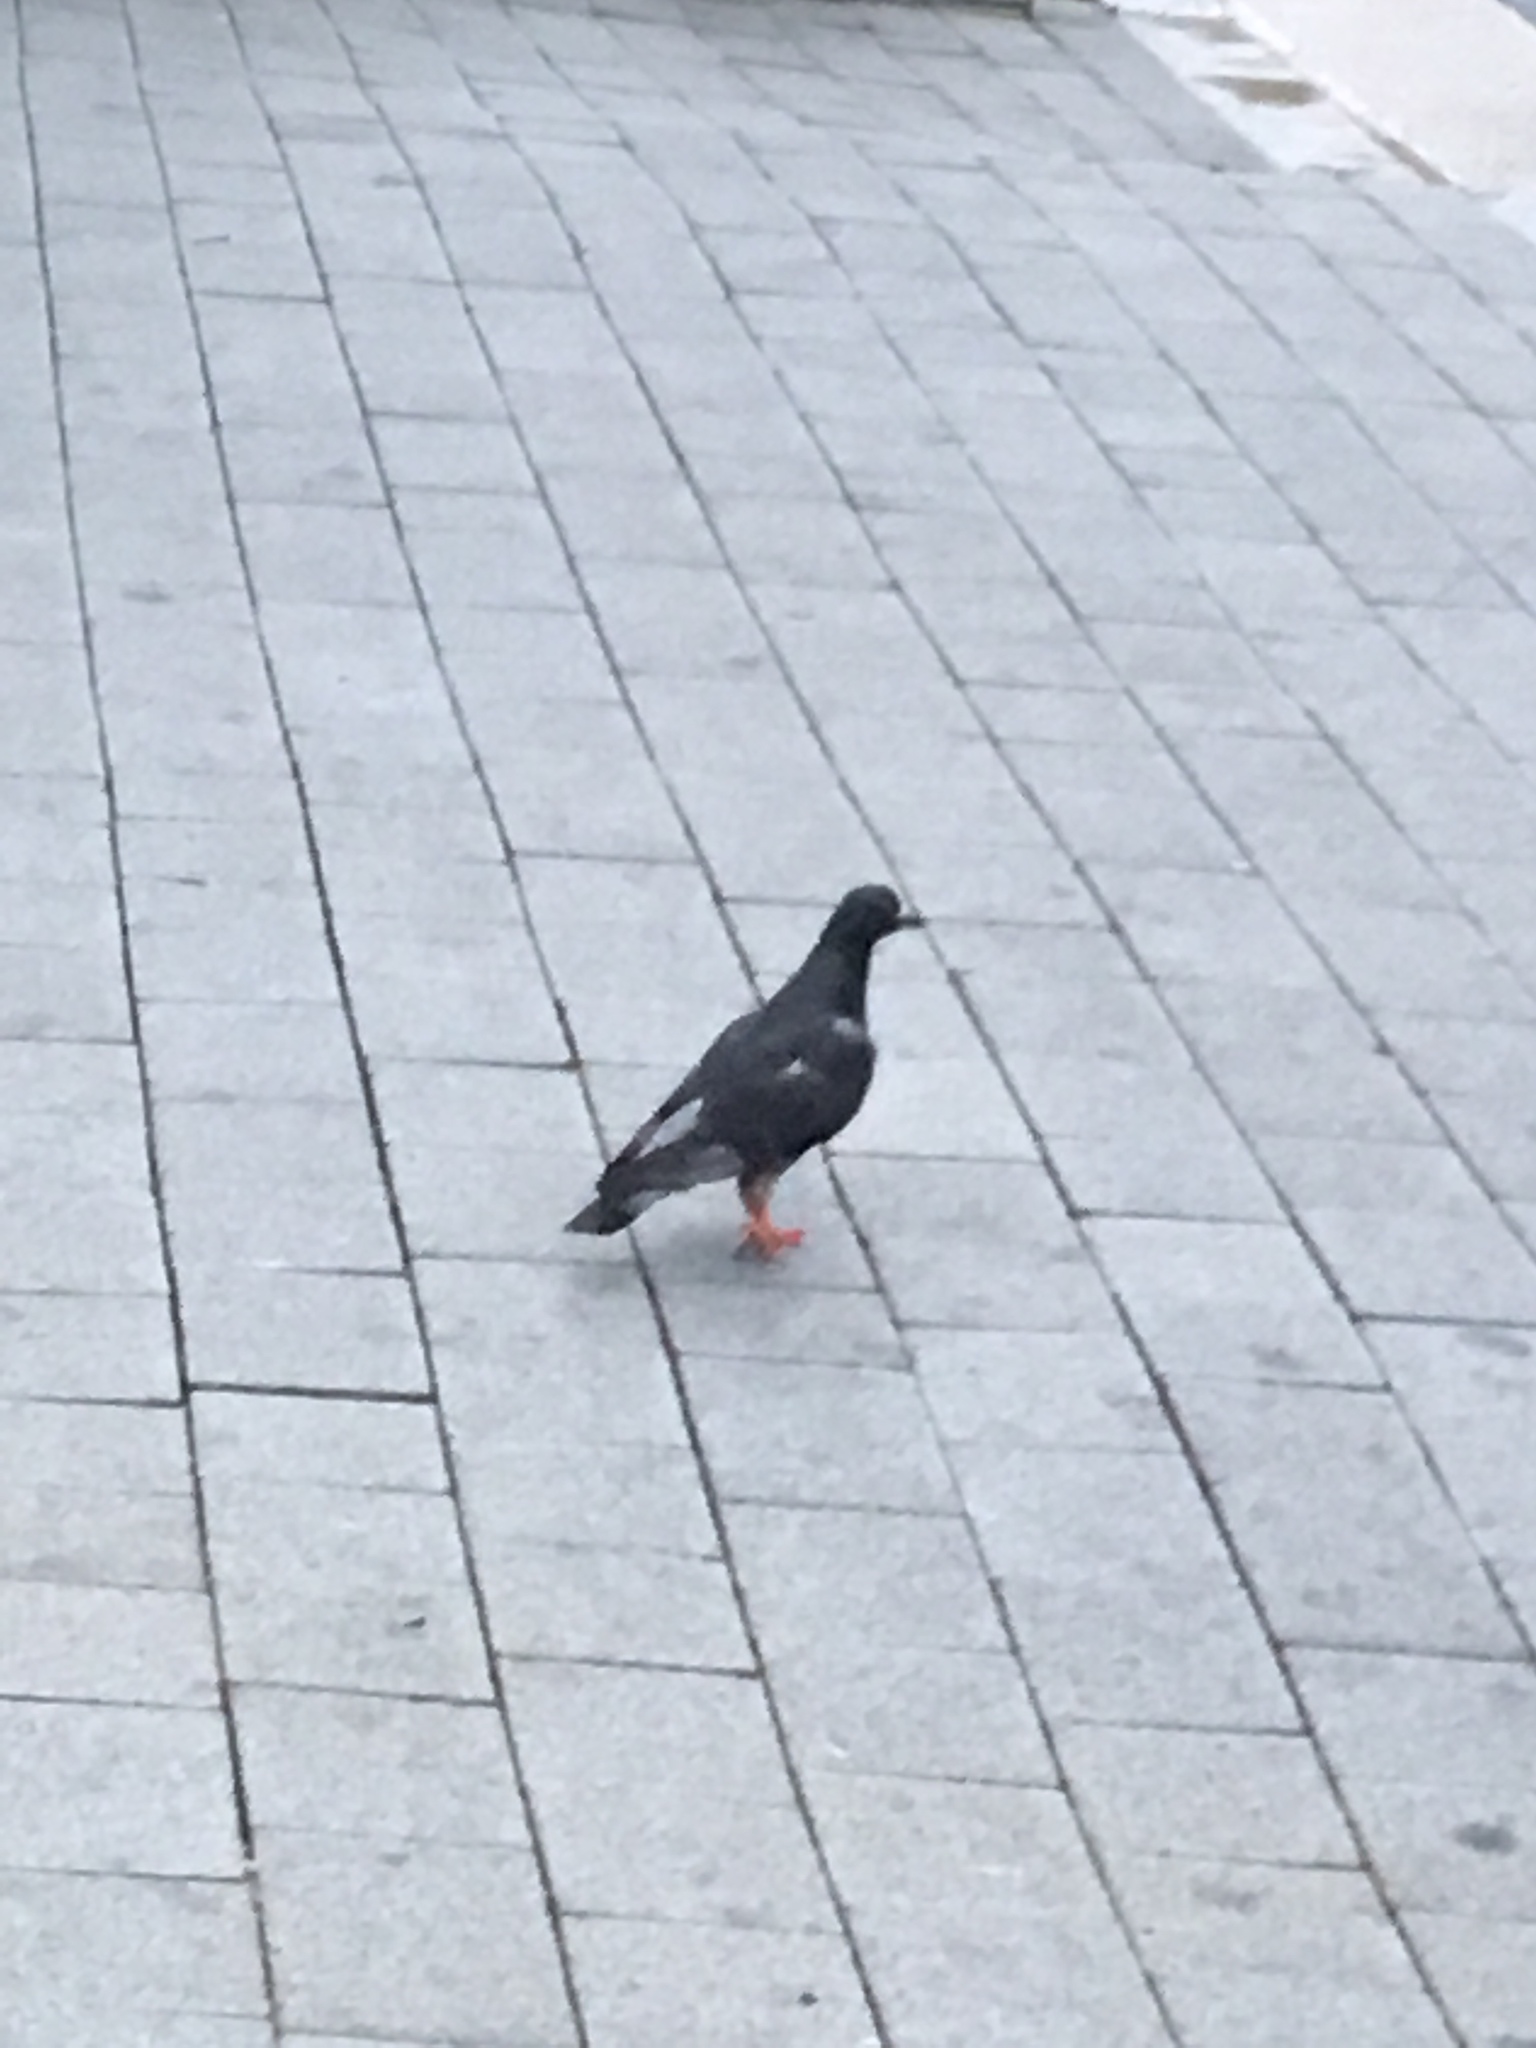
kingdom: Animalia
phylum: Chordata
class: Aves
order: Columbiformes
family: Columbidae
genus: Columba
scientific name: Columba livia
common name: Rock pigeon
